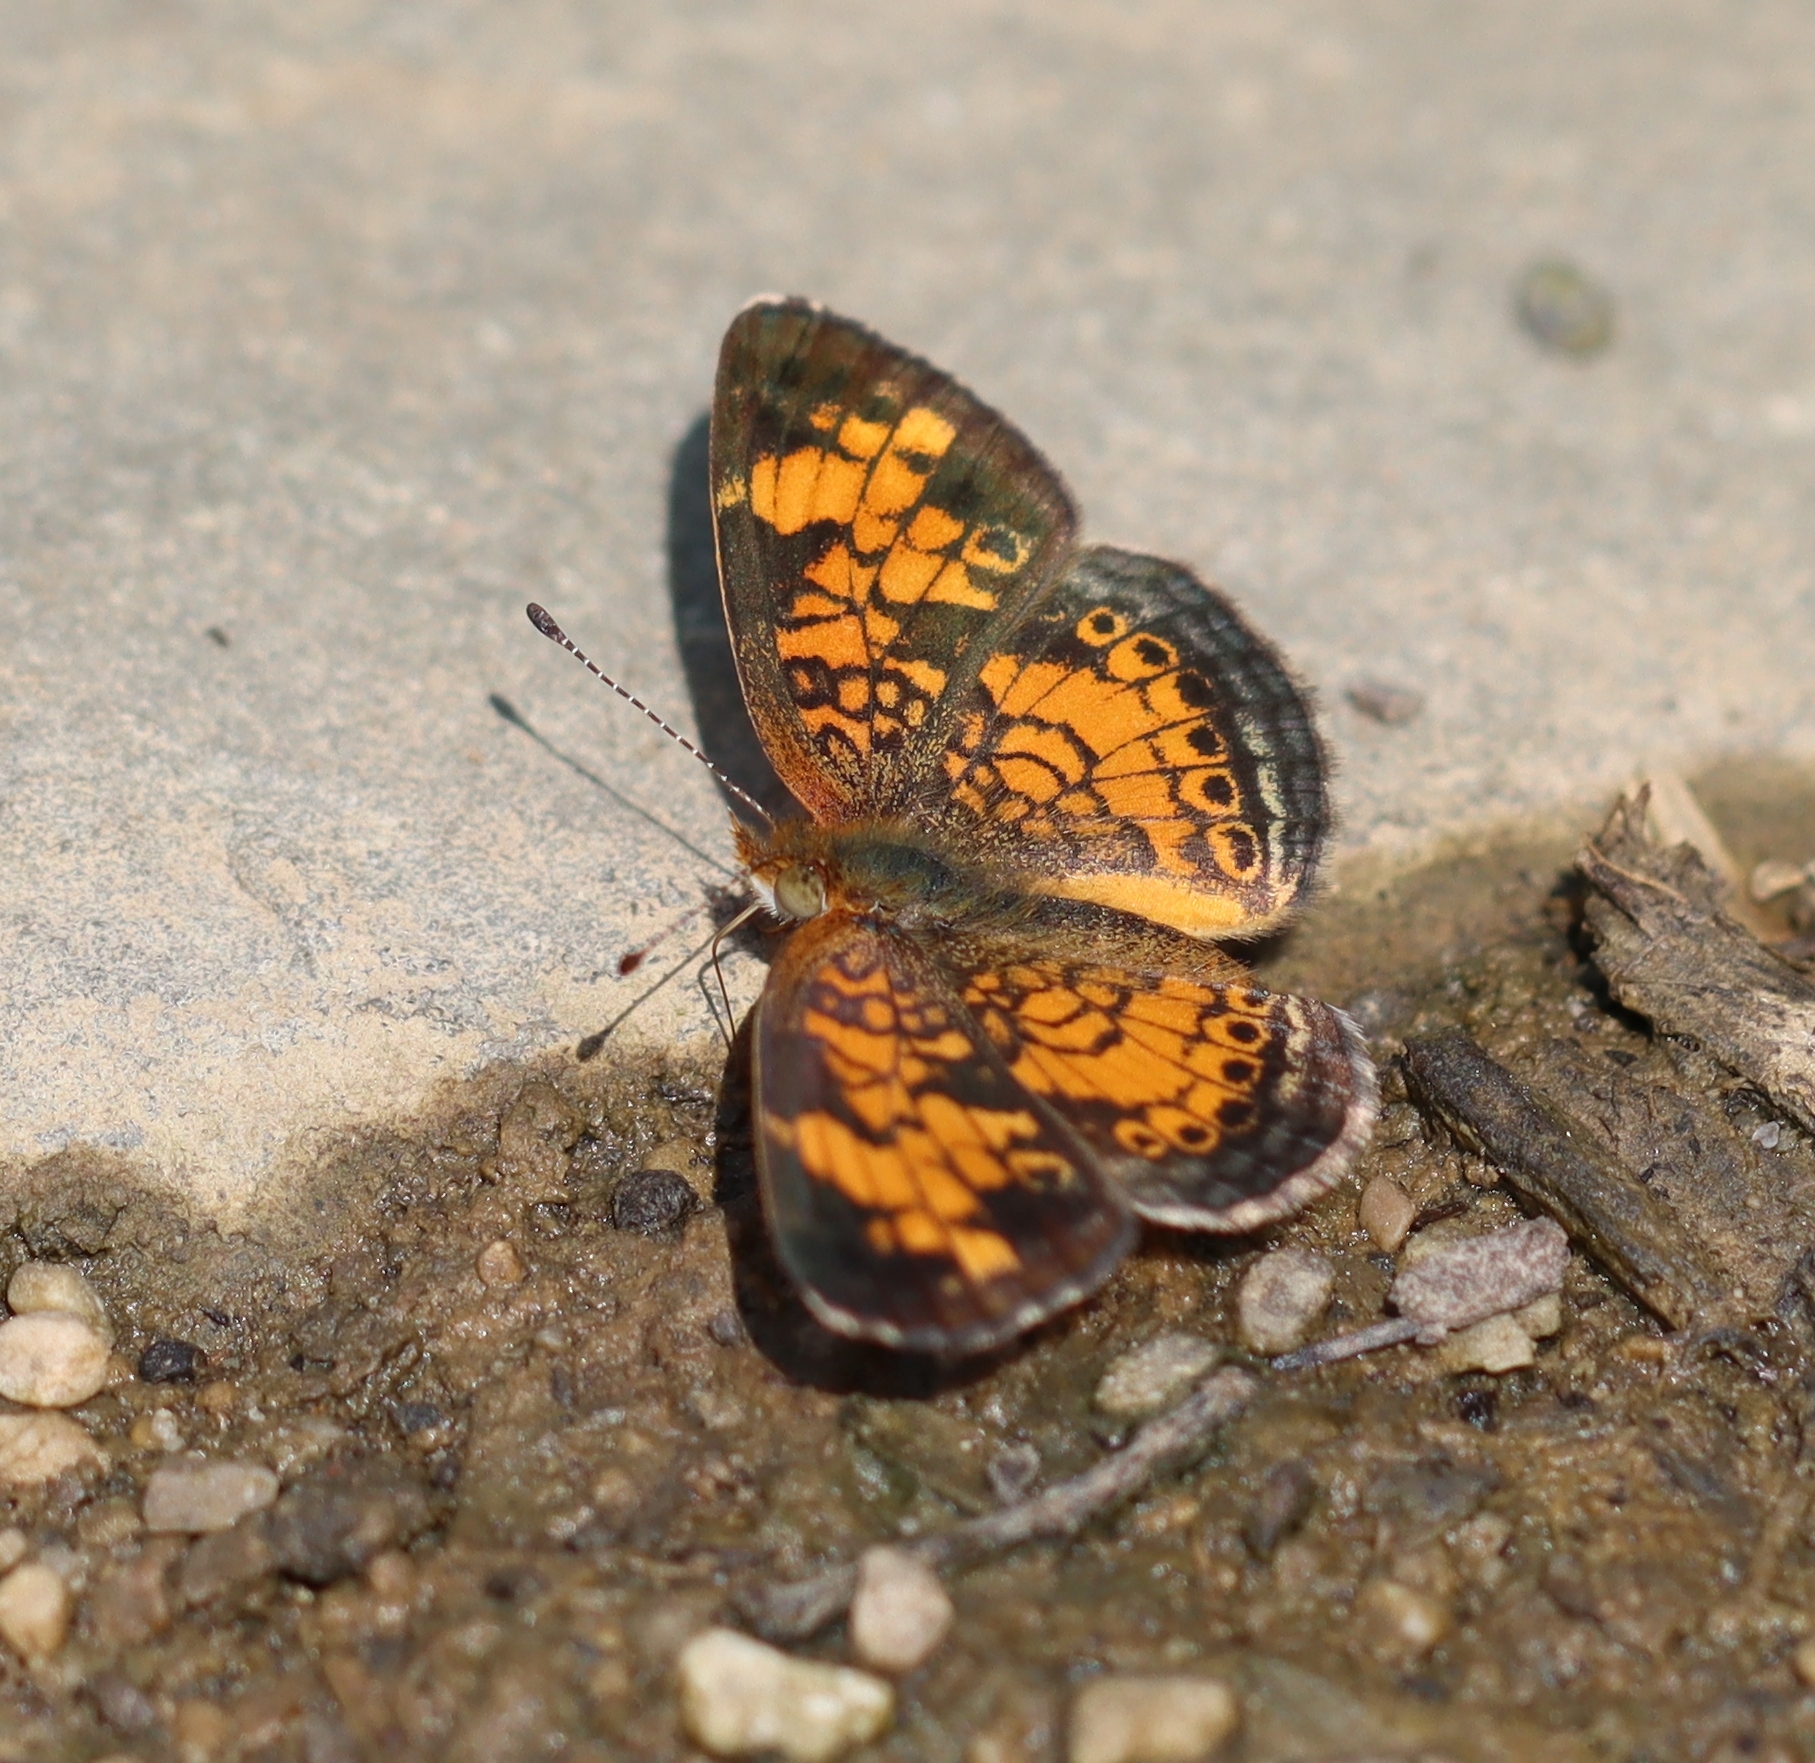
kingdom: Animalia
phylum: Arthropoda
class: Insecta
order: Lepidoptera
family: Nymphalidae
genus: Phyciodes
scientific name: Phyciodes tharos
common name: Pearl crescent
